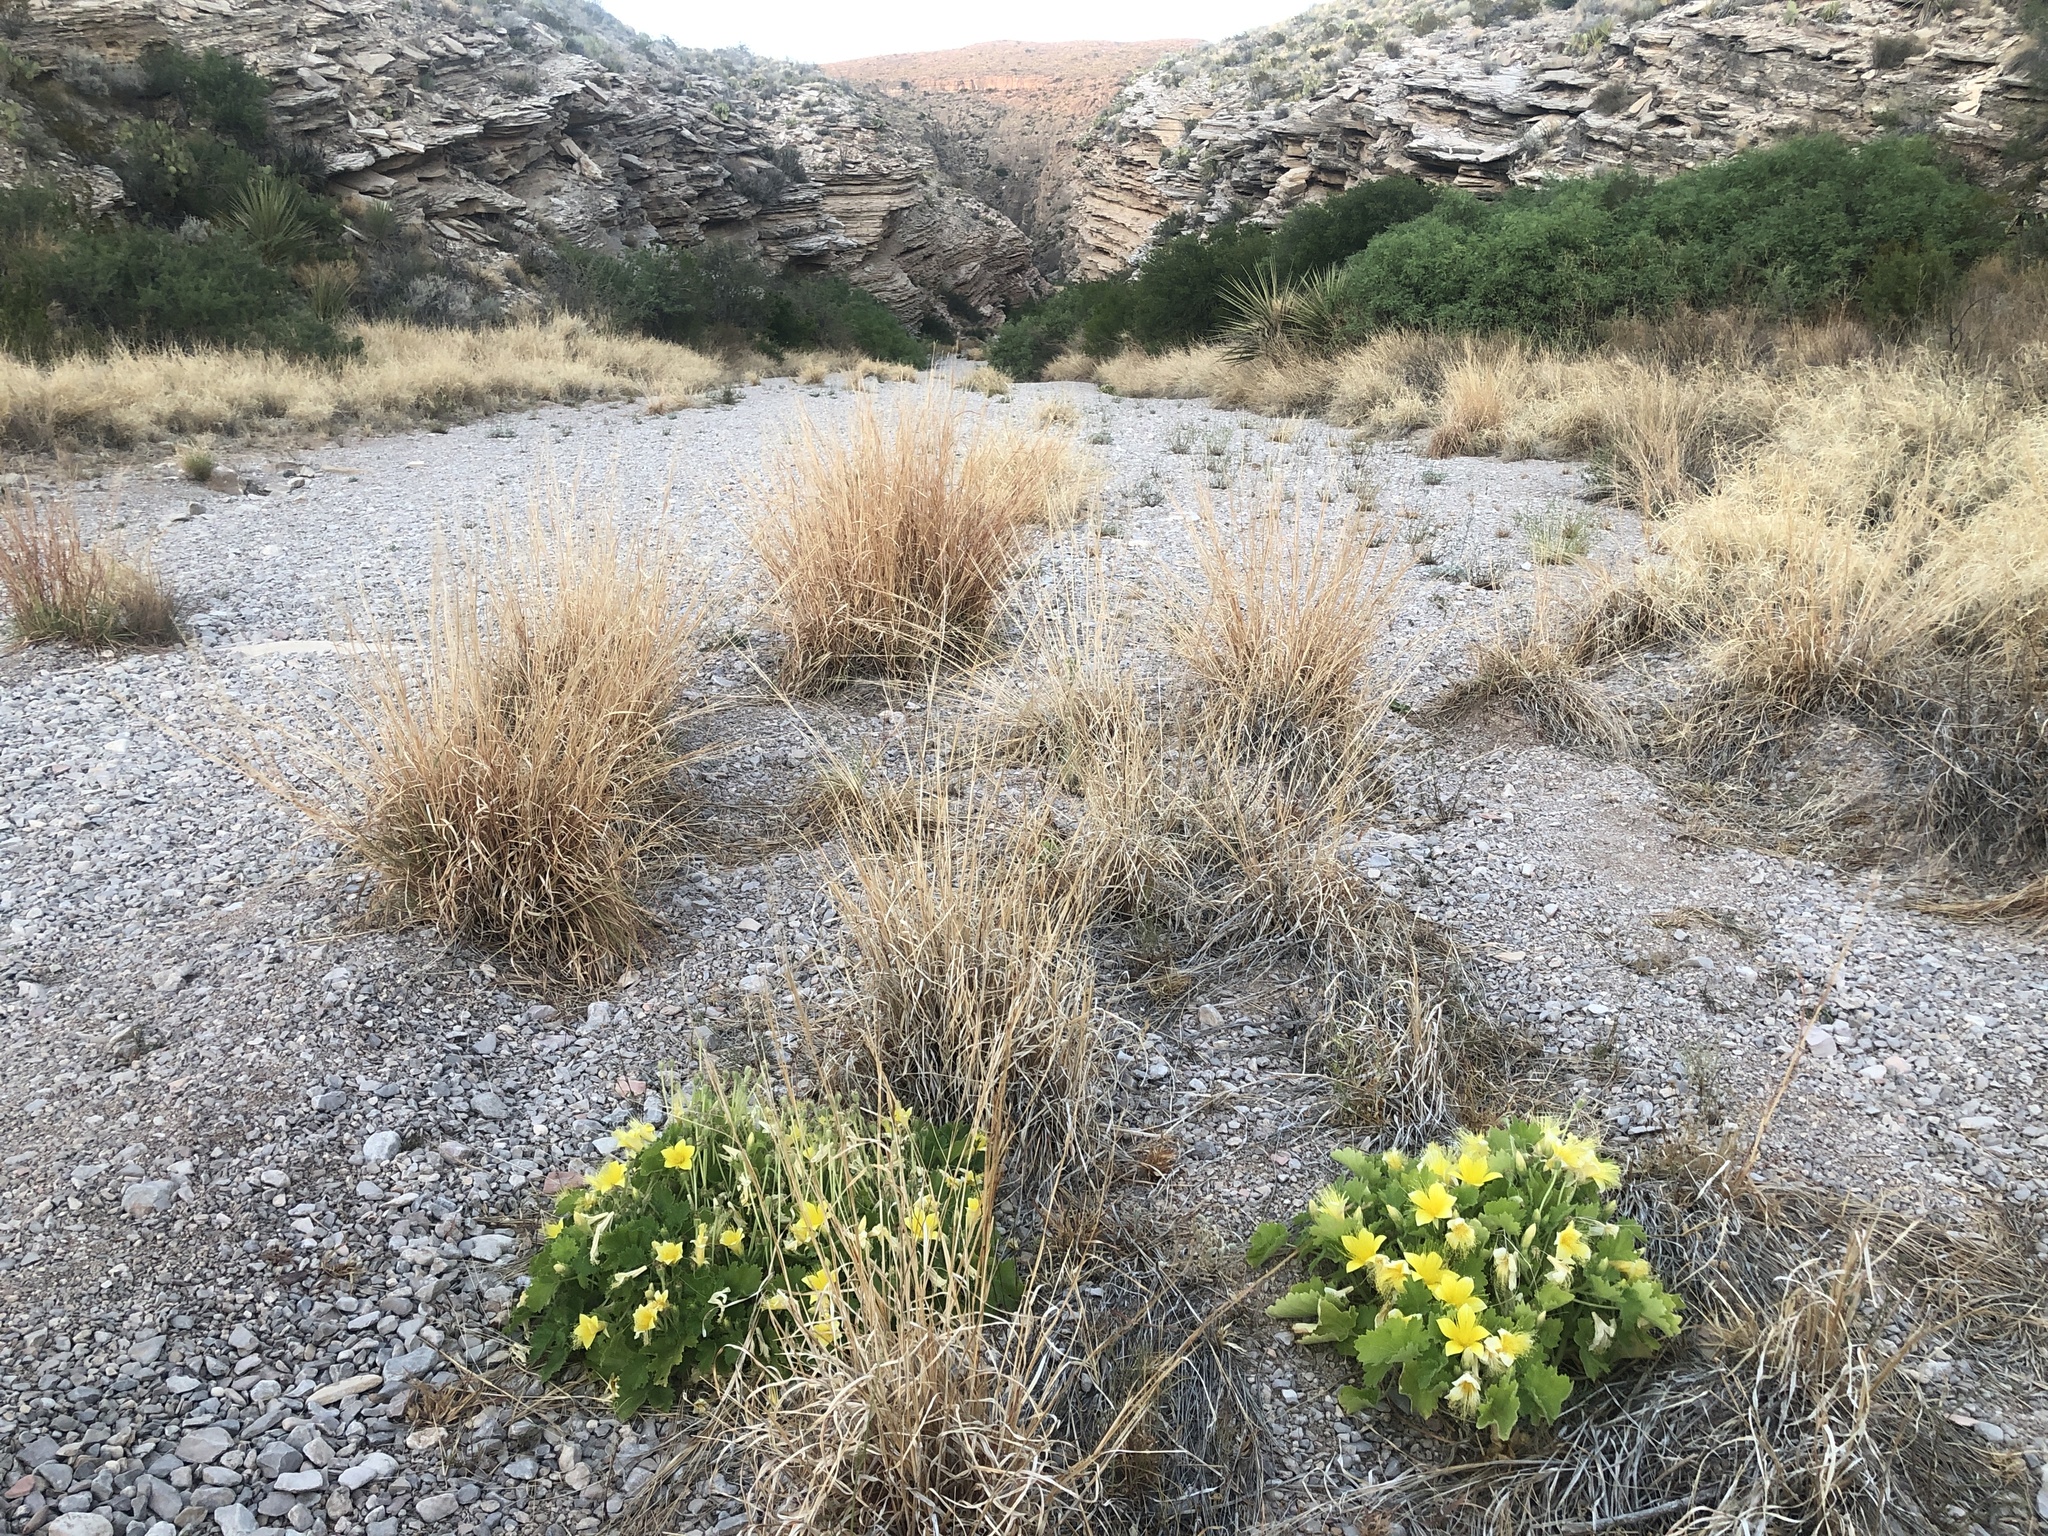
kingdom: Plantae
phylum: Tracheophyta
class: Magnoliopsida
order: Cornales
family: Loasaceae
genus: Eucnide
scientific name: Eucnide bartonioides
